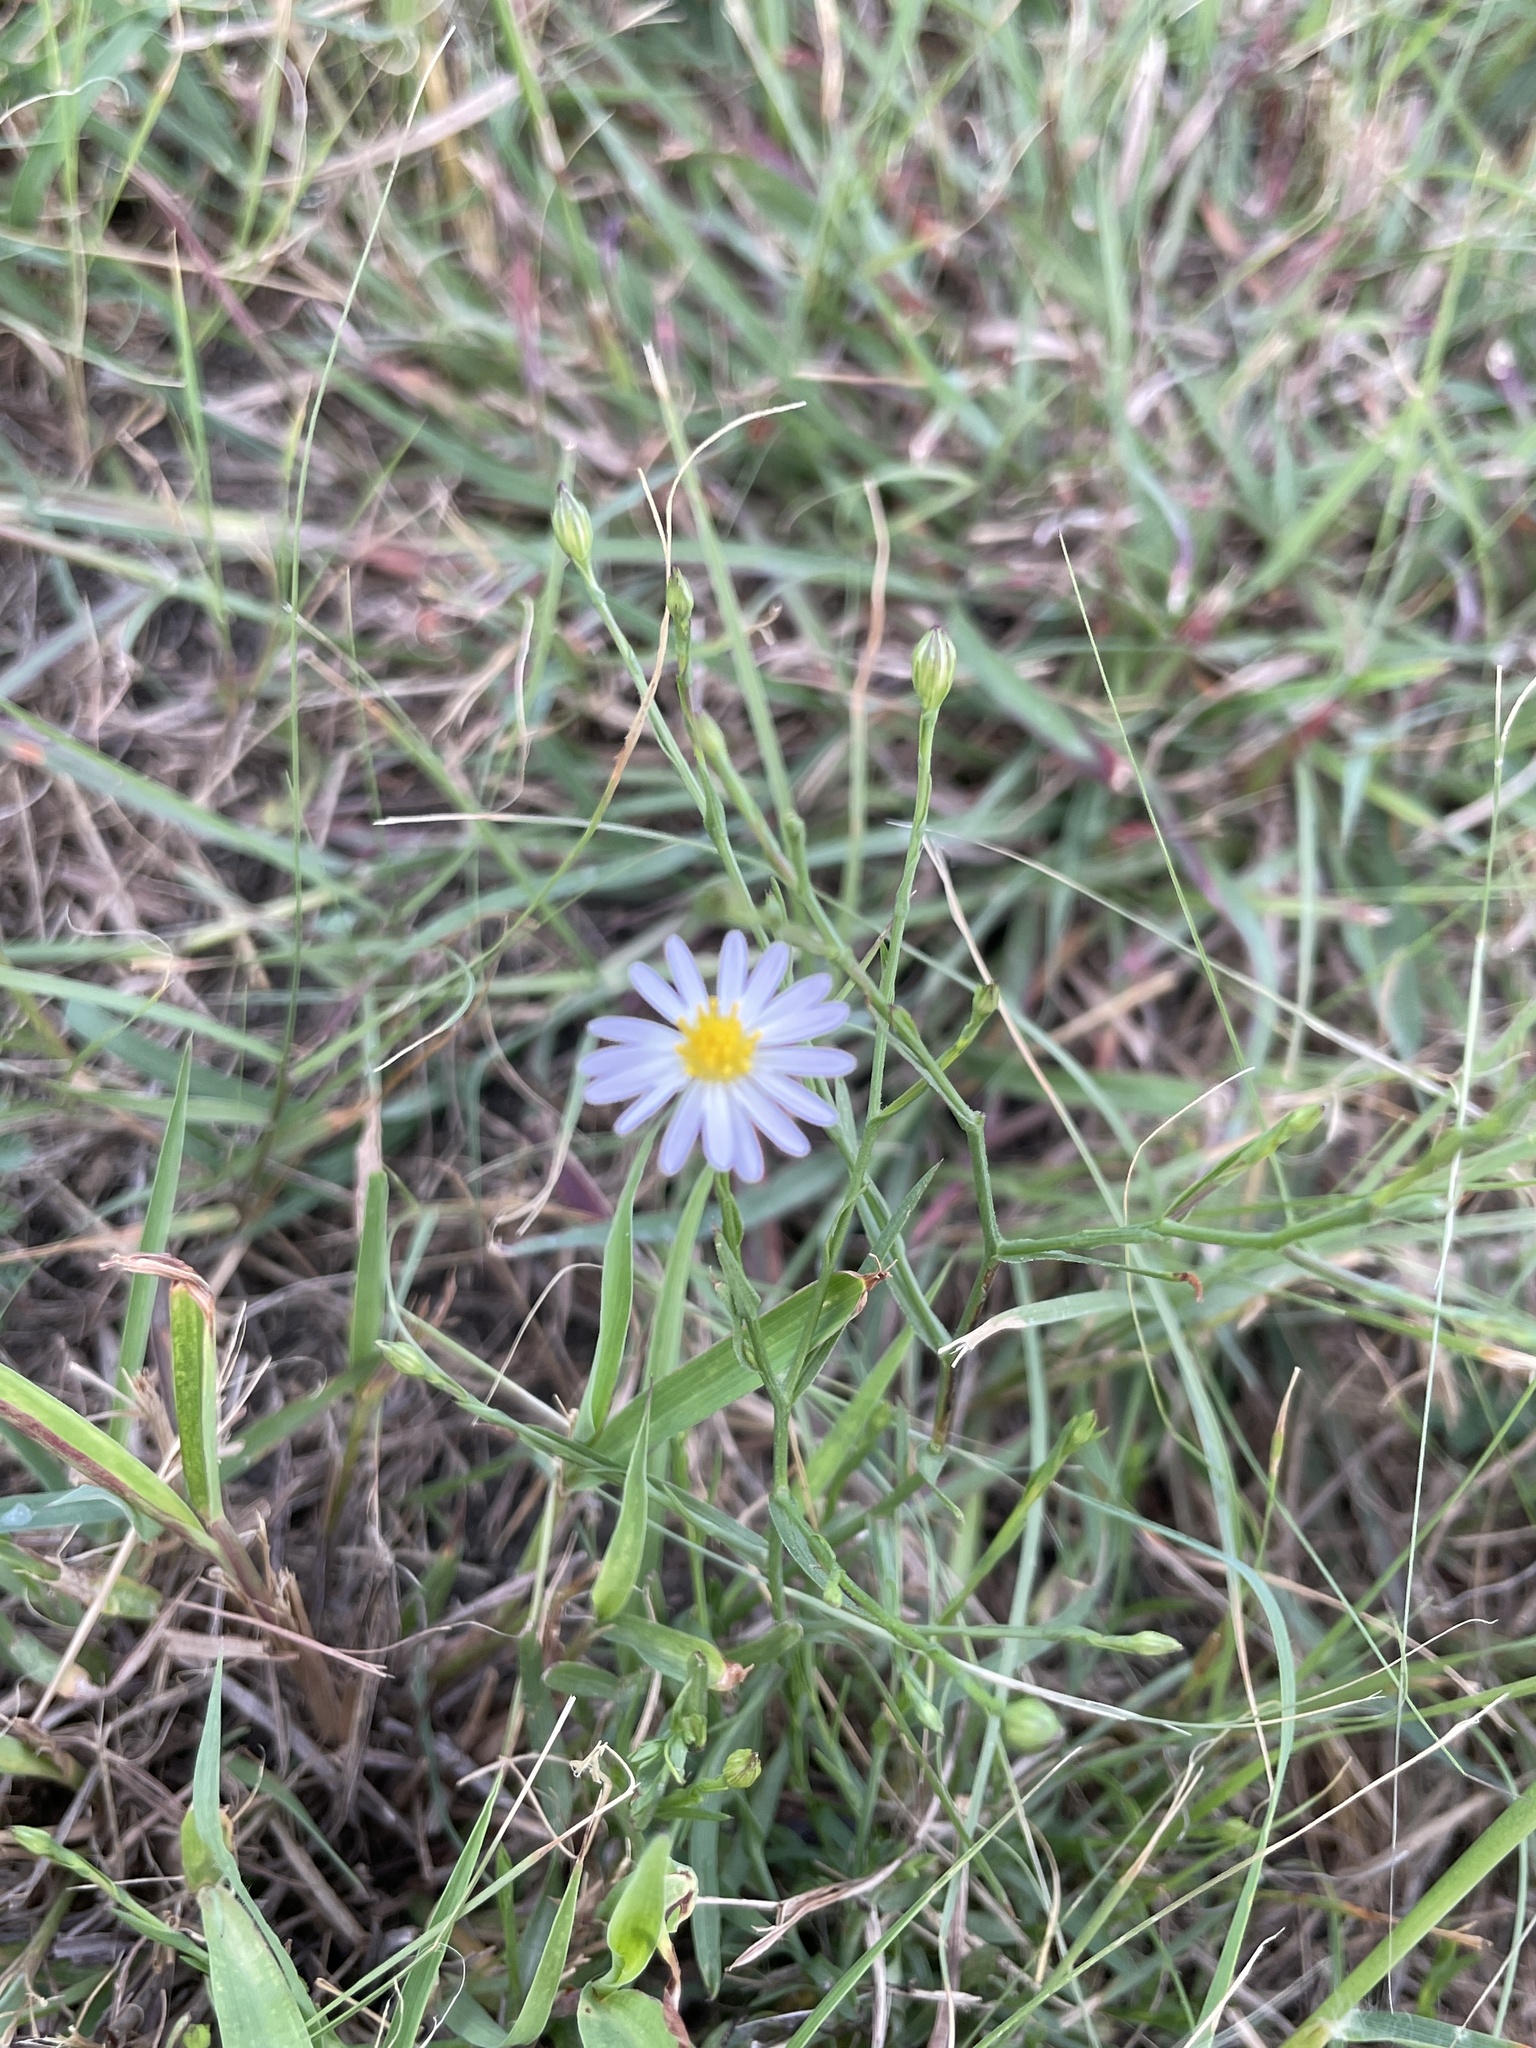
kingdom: Plantae
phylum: Tracheophyta
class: Magnoliopsida
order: Asterales
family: Asteraceae
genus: Symphyotrichum
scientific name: Symphyotrichum divaricatum
